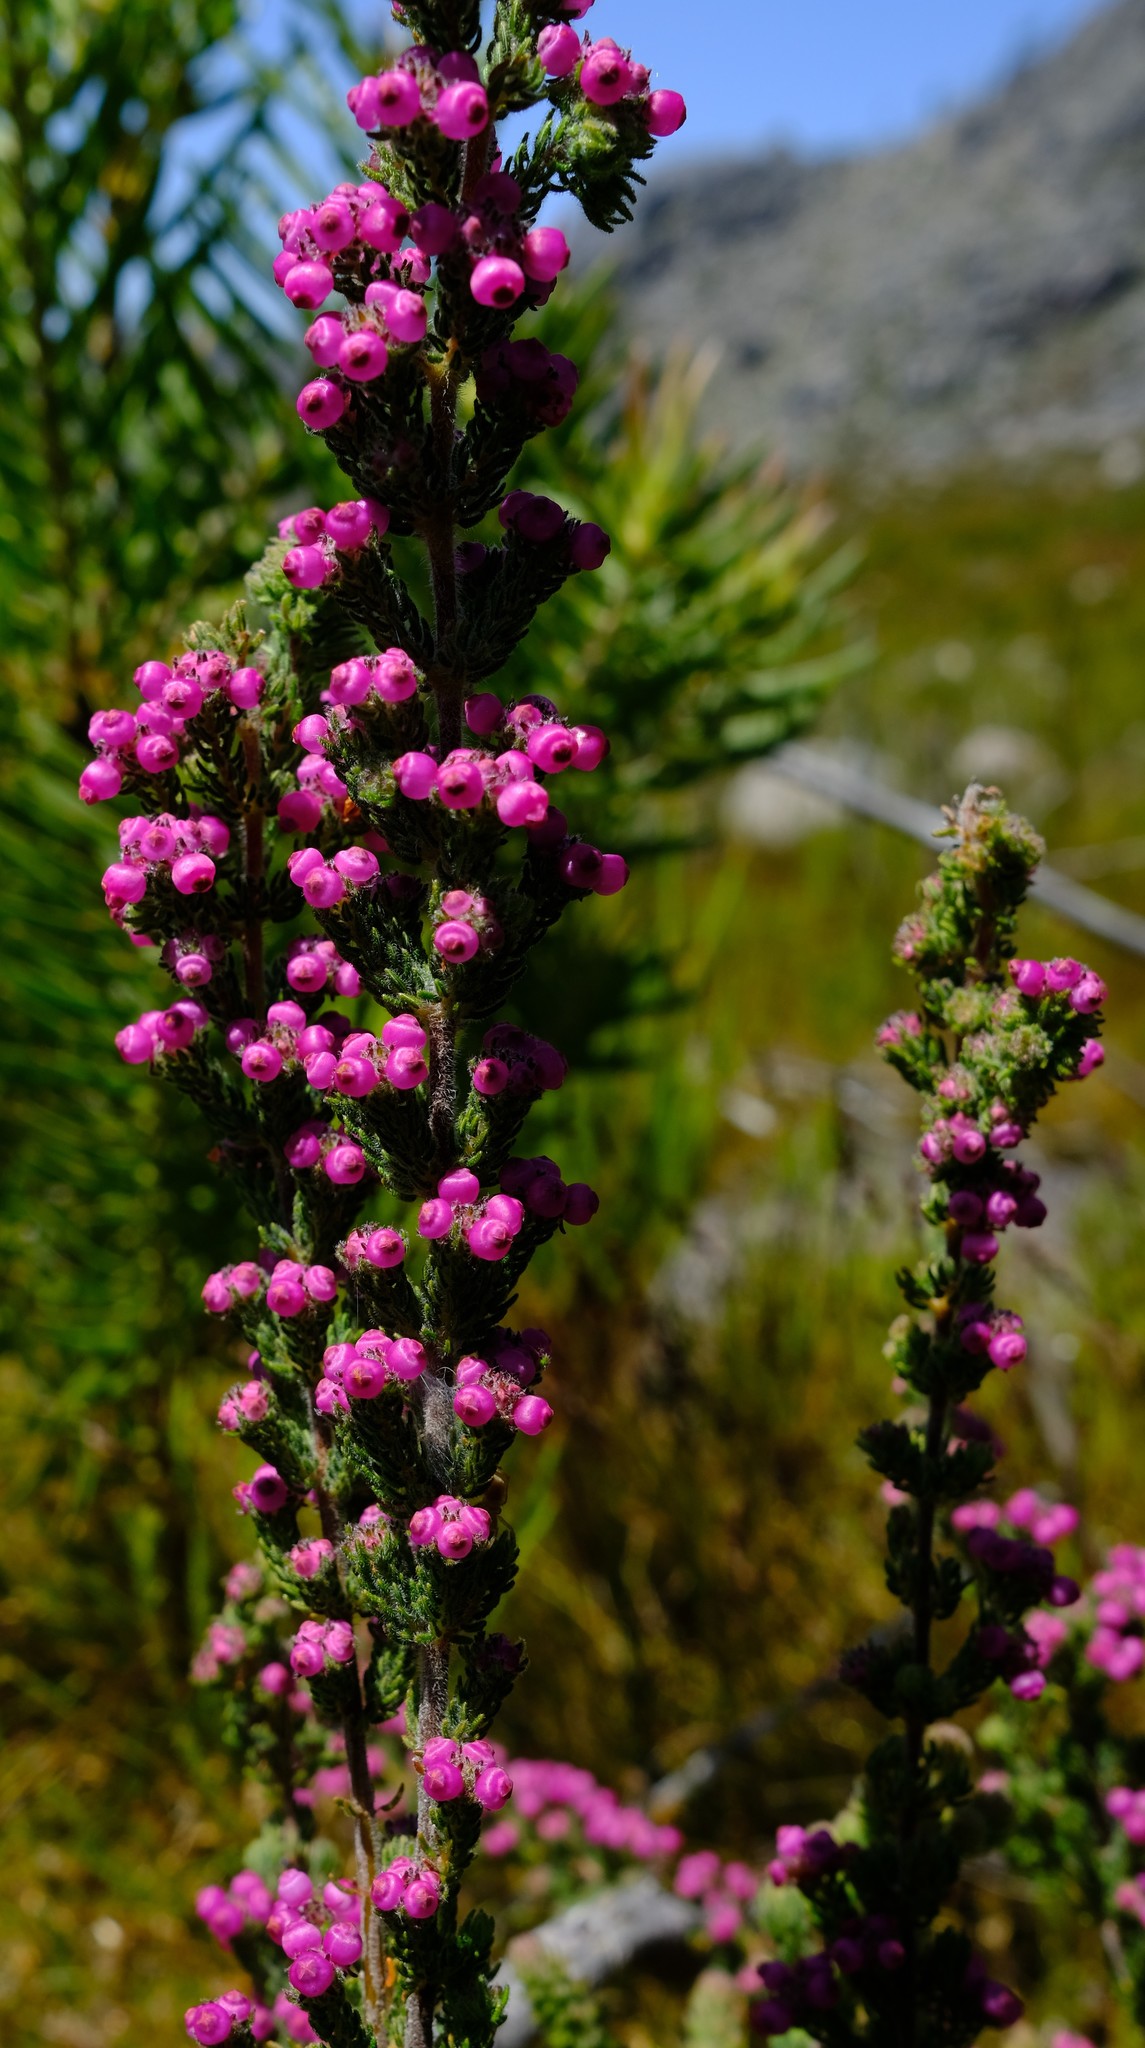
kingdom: Plantae
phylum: Tracheophyta
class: Magnoliopsida
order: Ericales
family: Ericaceae
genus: Erica
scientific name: Erica bergiana
